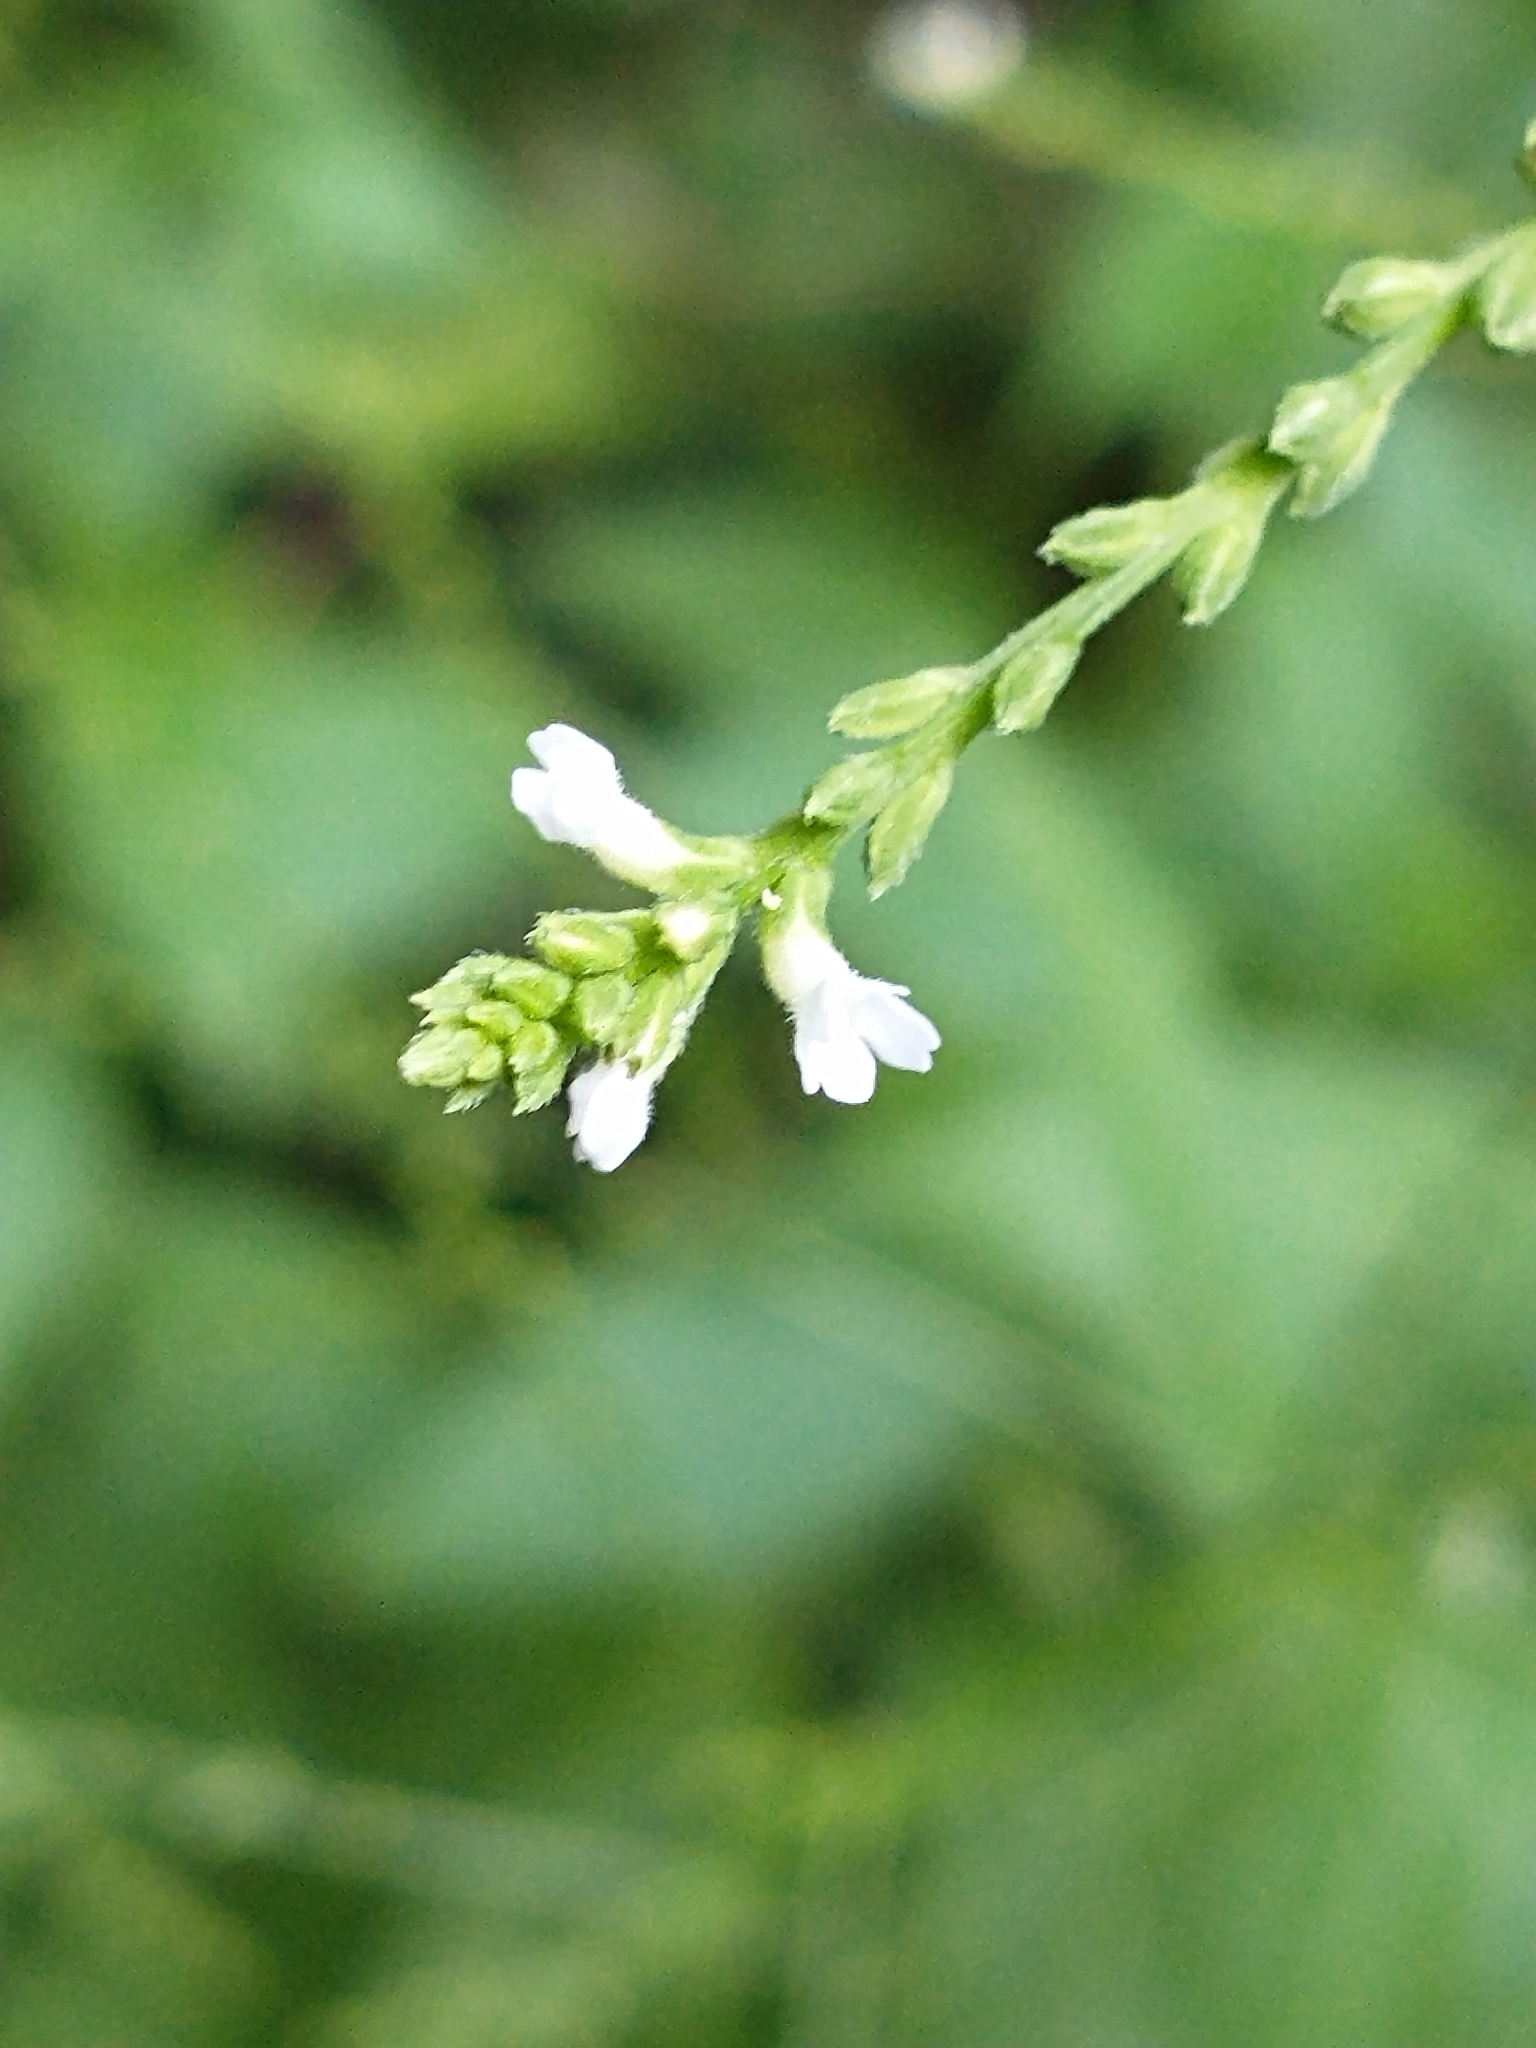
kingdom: Plantae
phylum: Tracheophyta
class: Magnoliopsida
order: Lamiales
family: Verbenaceae
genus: Verbena
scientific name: Verbena urticifolia
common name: Nettle-leaved vervain
